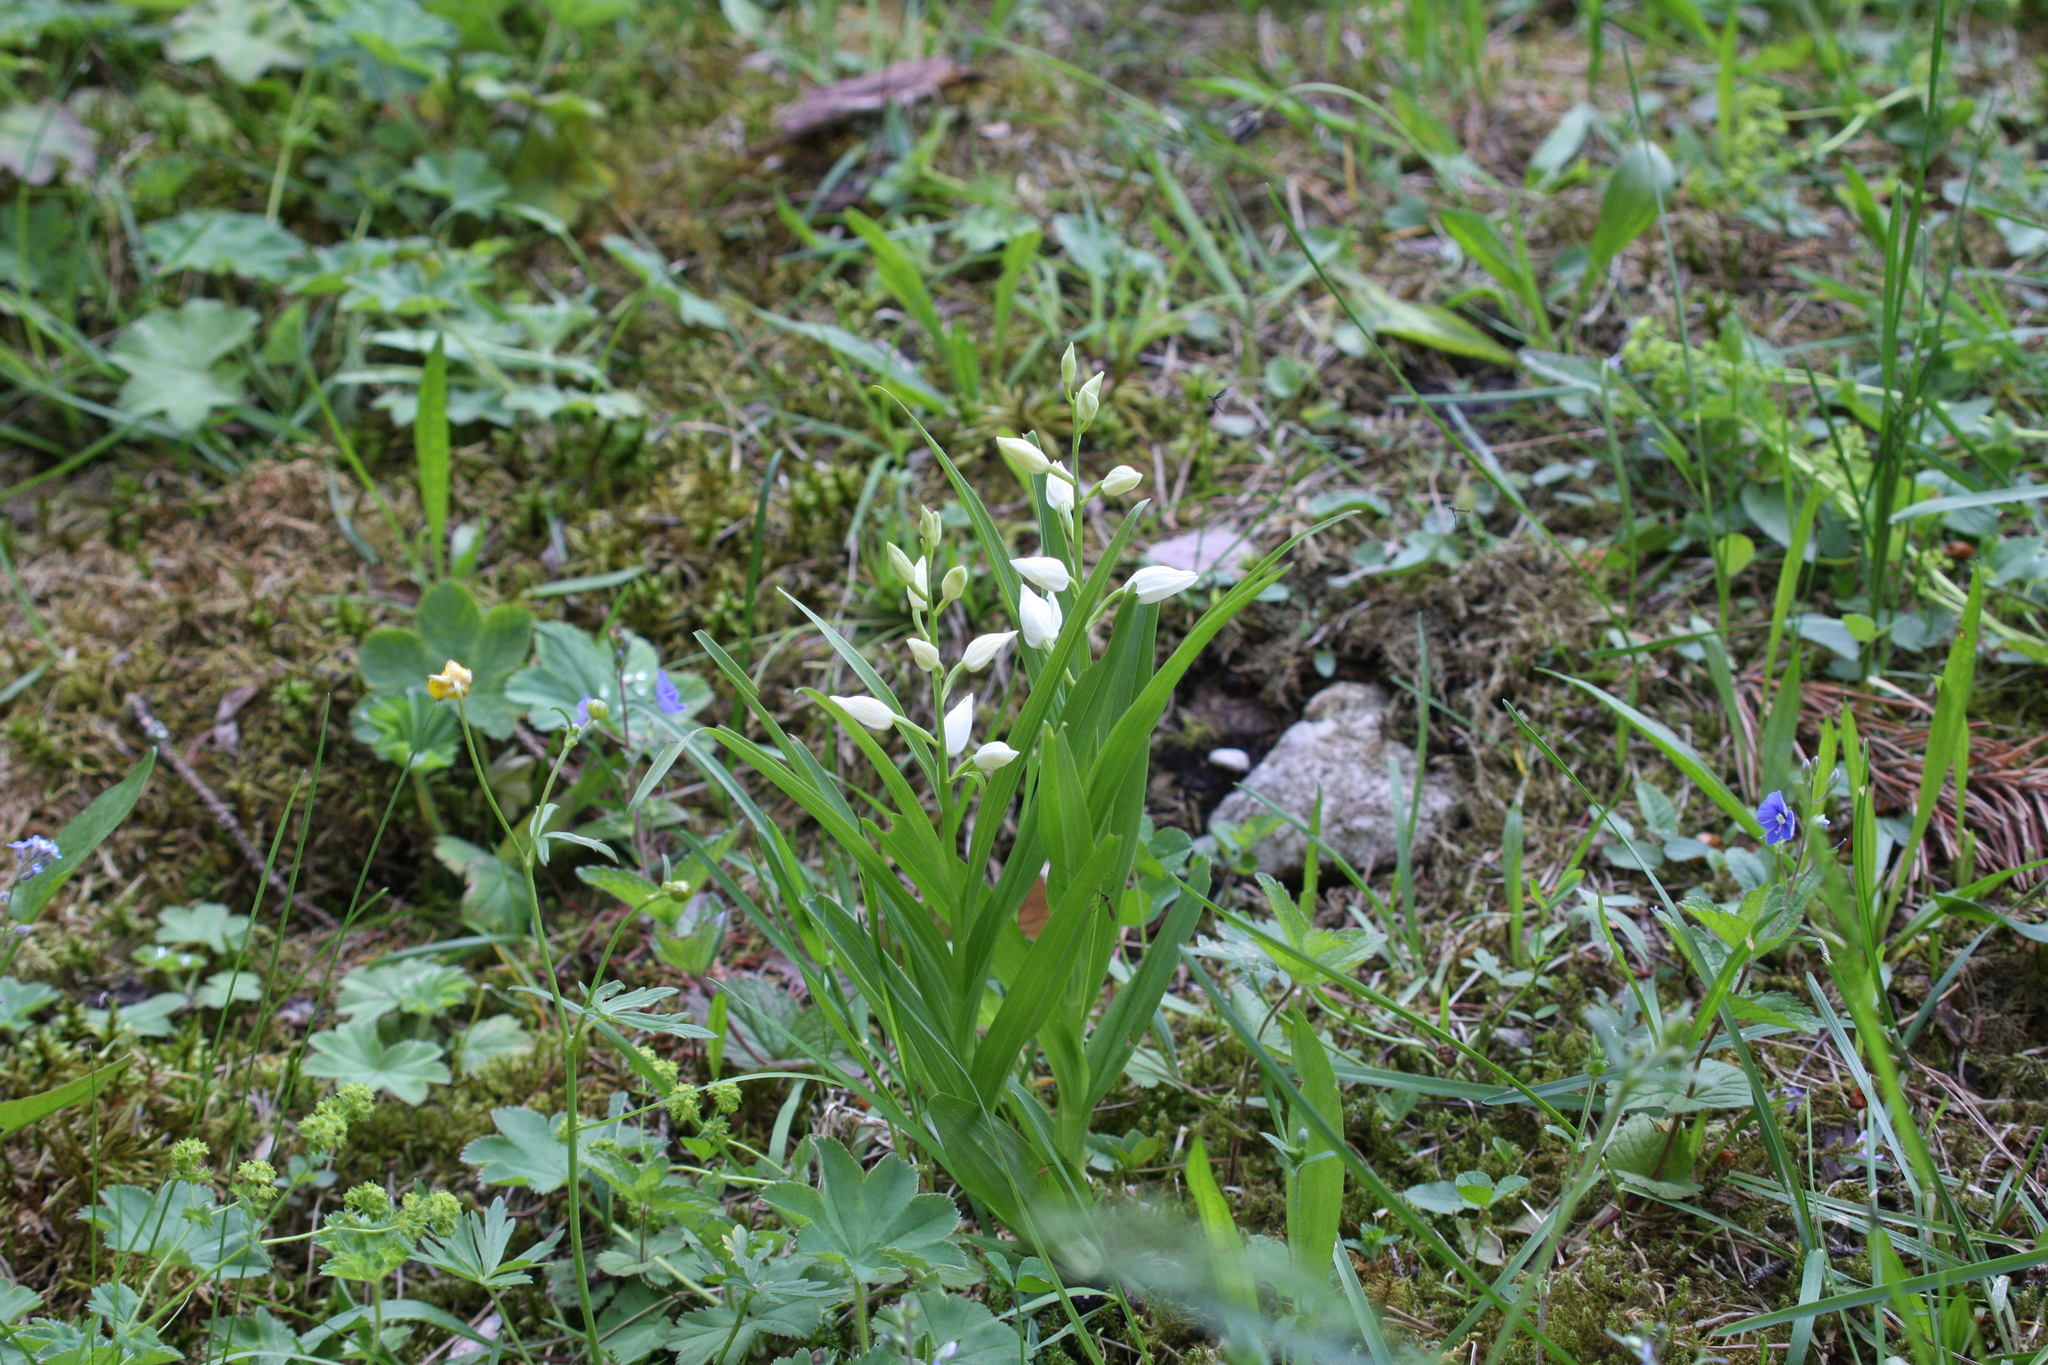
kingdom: Plantae
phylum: Tracheophyta
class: Liliopsida
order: Asparagales
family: Orchidaceae
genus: Cephalanthera
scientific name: Cephalanthera longifolia
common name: Narrow-leaved helleborine
